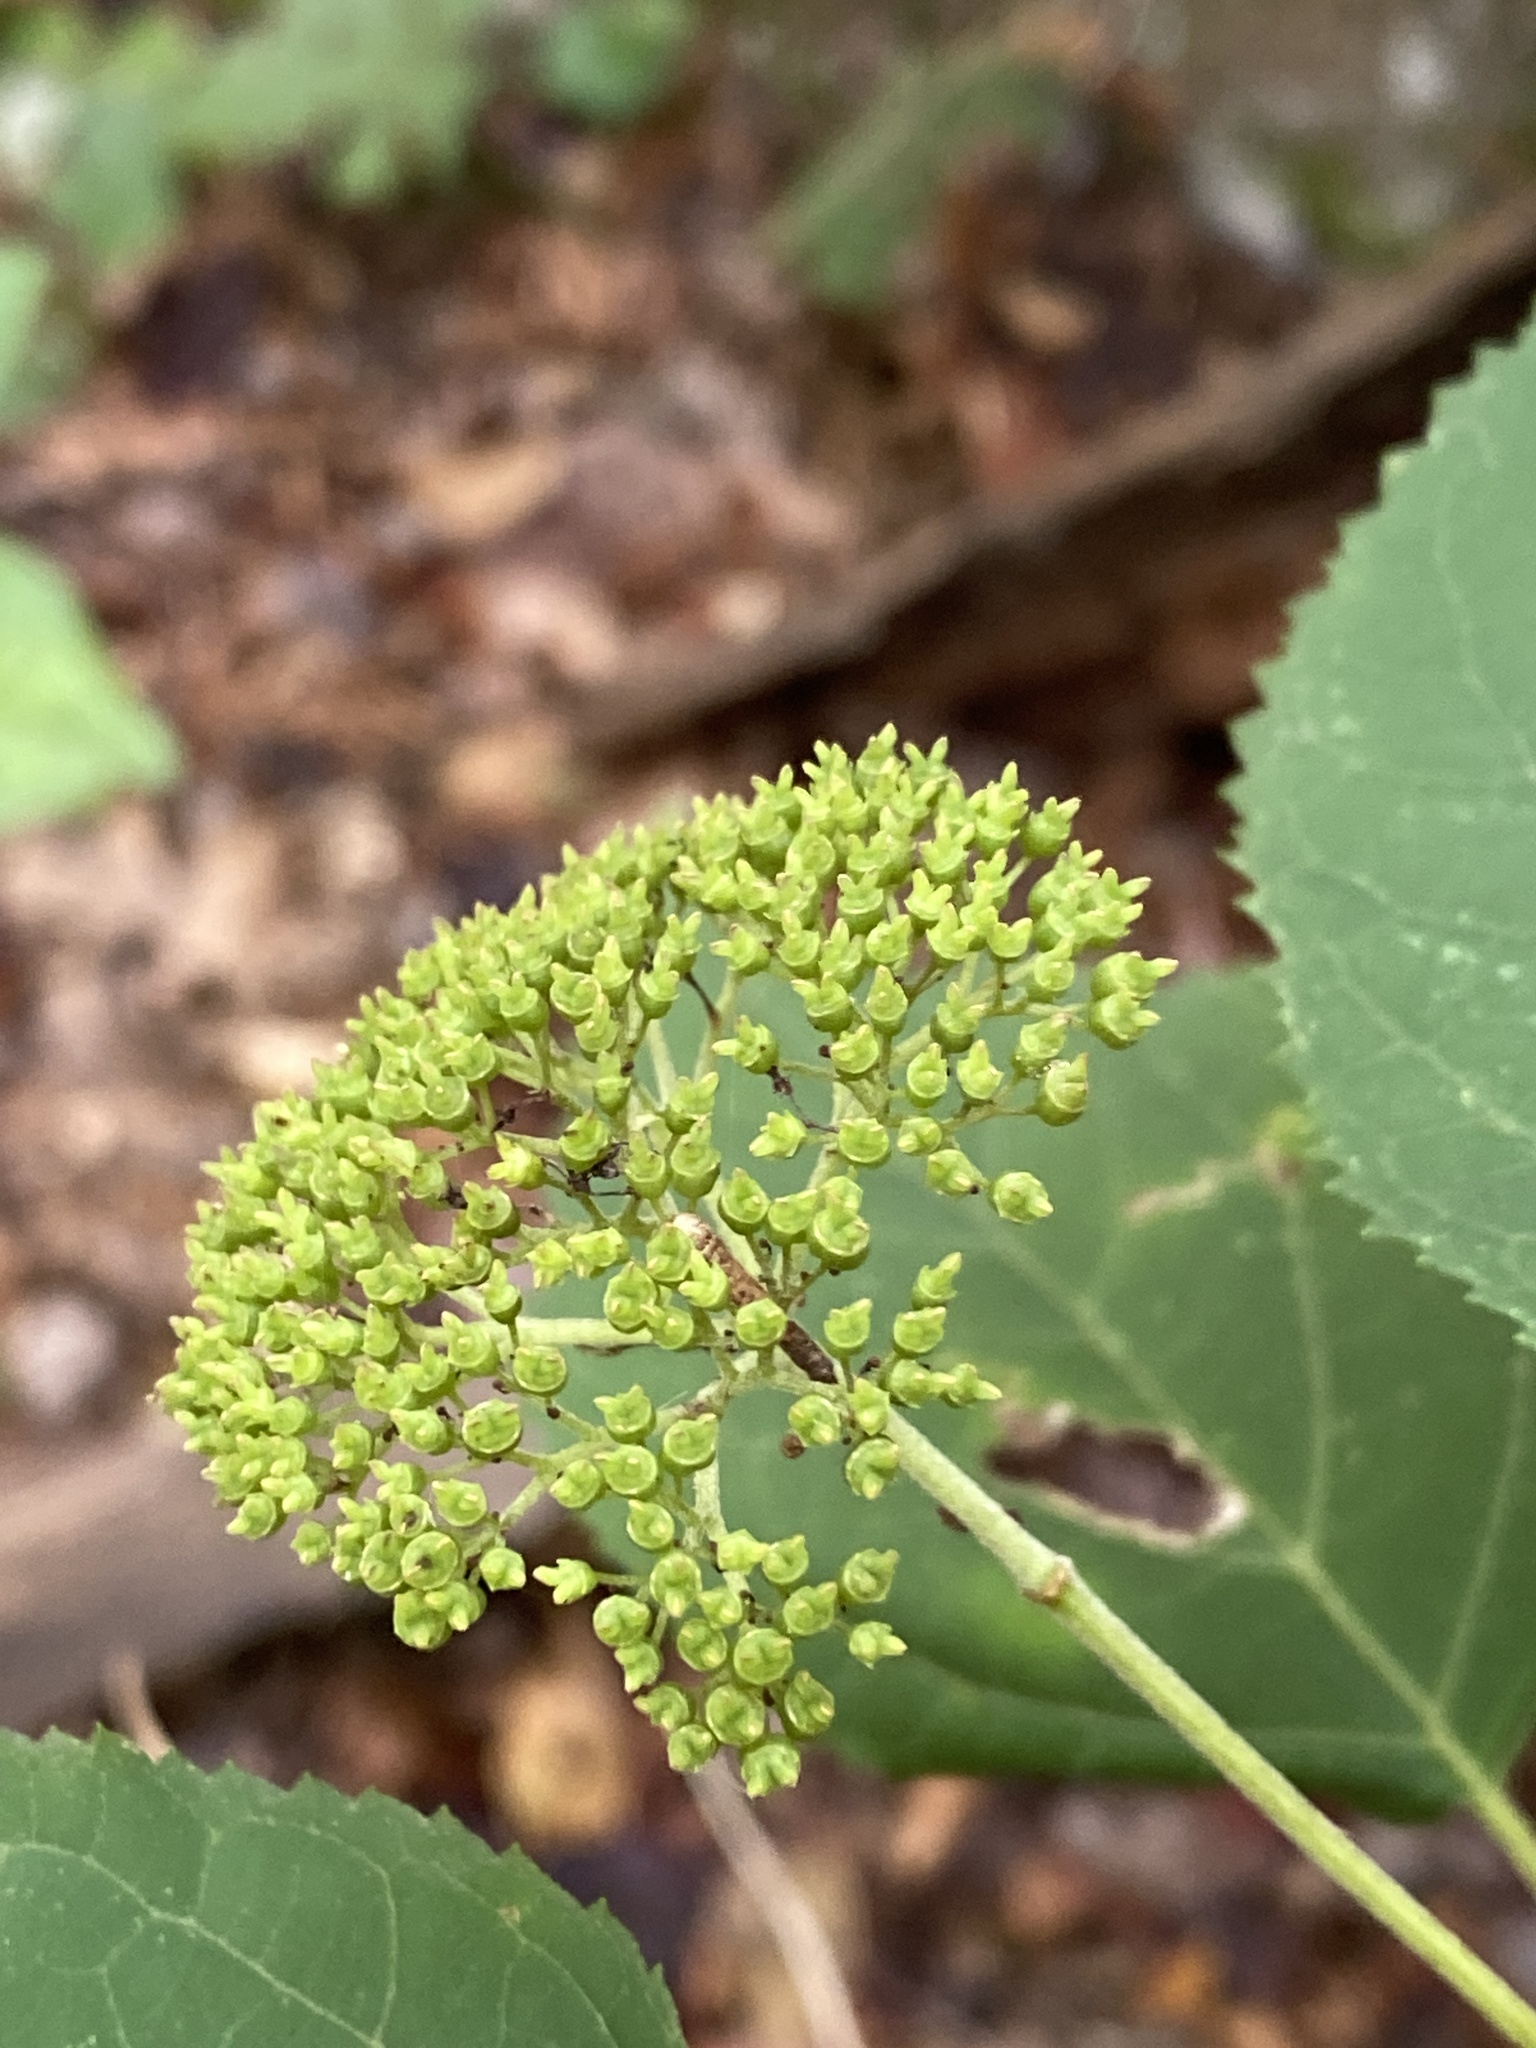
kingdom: Plantae
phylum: Tracheophyta
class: Magnoliopsida
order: Cornales
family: Hydrangeaceae
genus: Hydrangea
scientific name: Hydrangea arborescens
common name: Sevenbark
